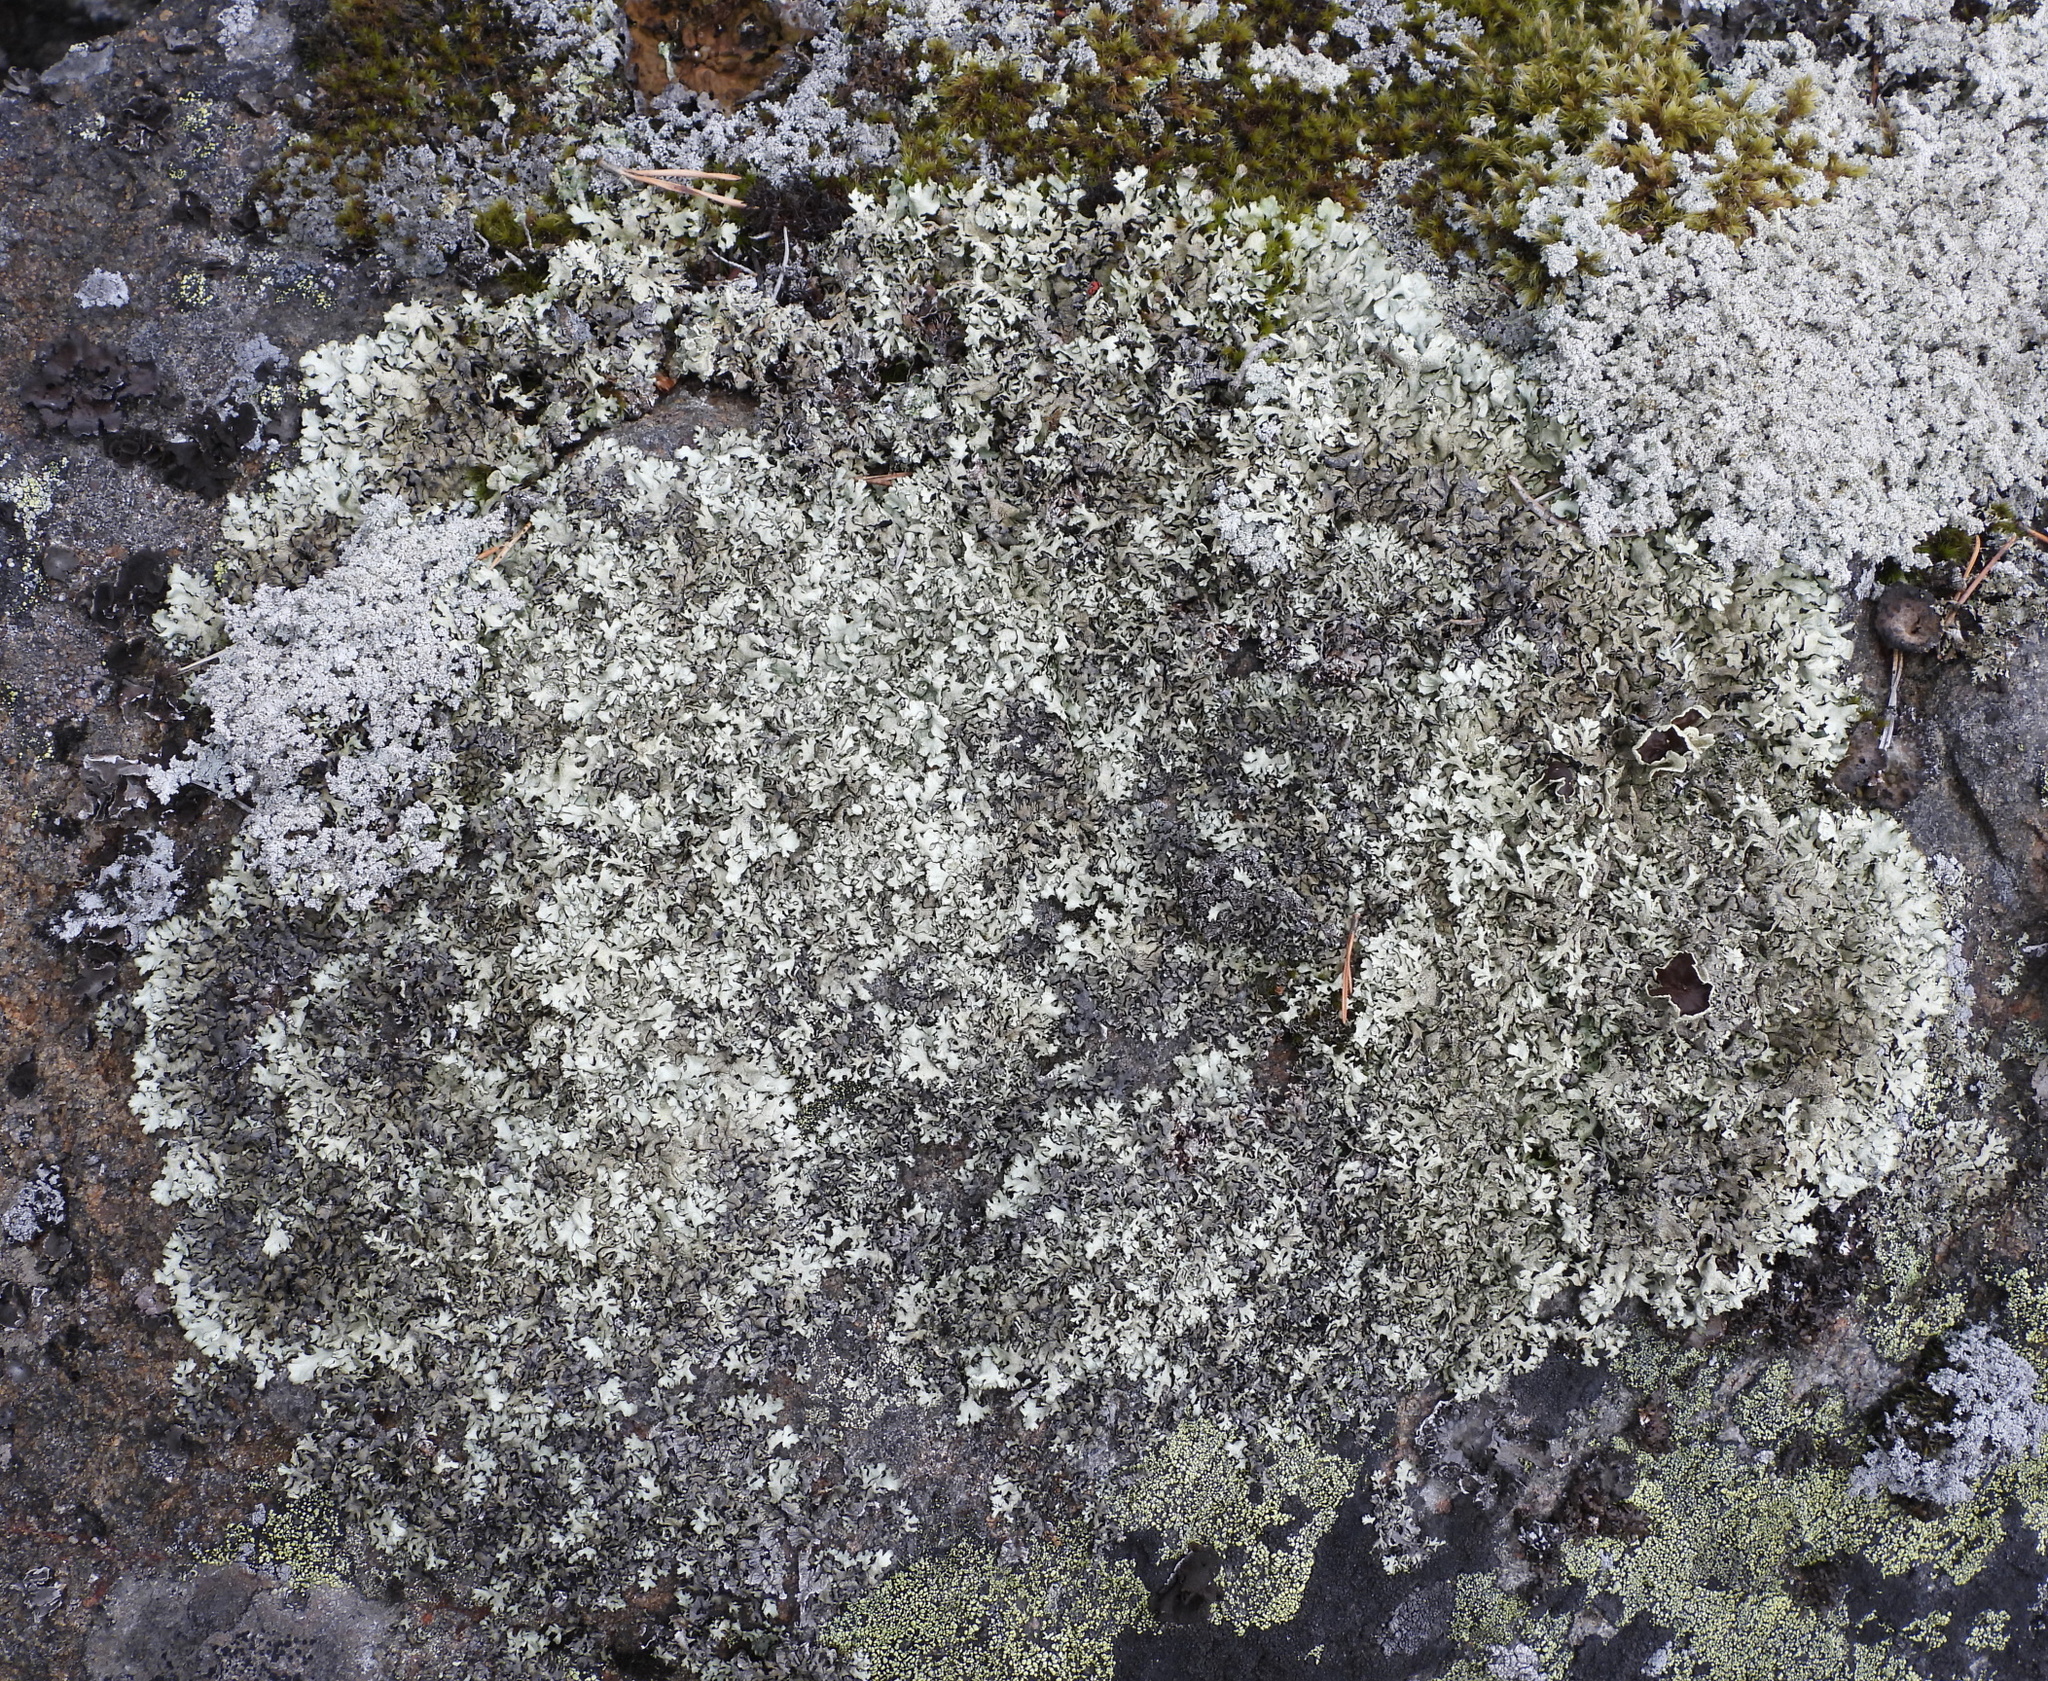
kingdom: Fungi
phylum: Ascomycota
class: Lecanoromycetes
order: Lecanorales
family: Parmeliaceae
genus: Xanthoparmelia
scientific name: Xanthoparmelia stenophylla
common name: Shingled rock shield
